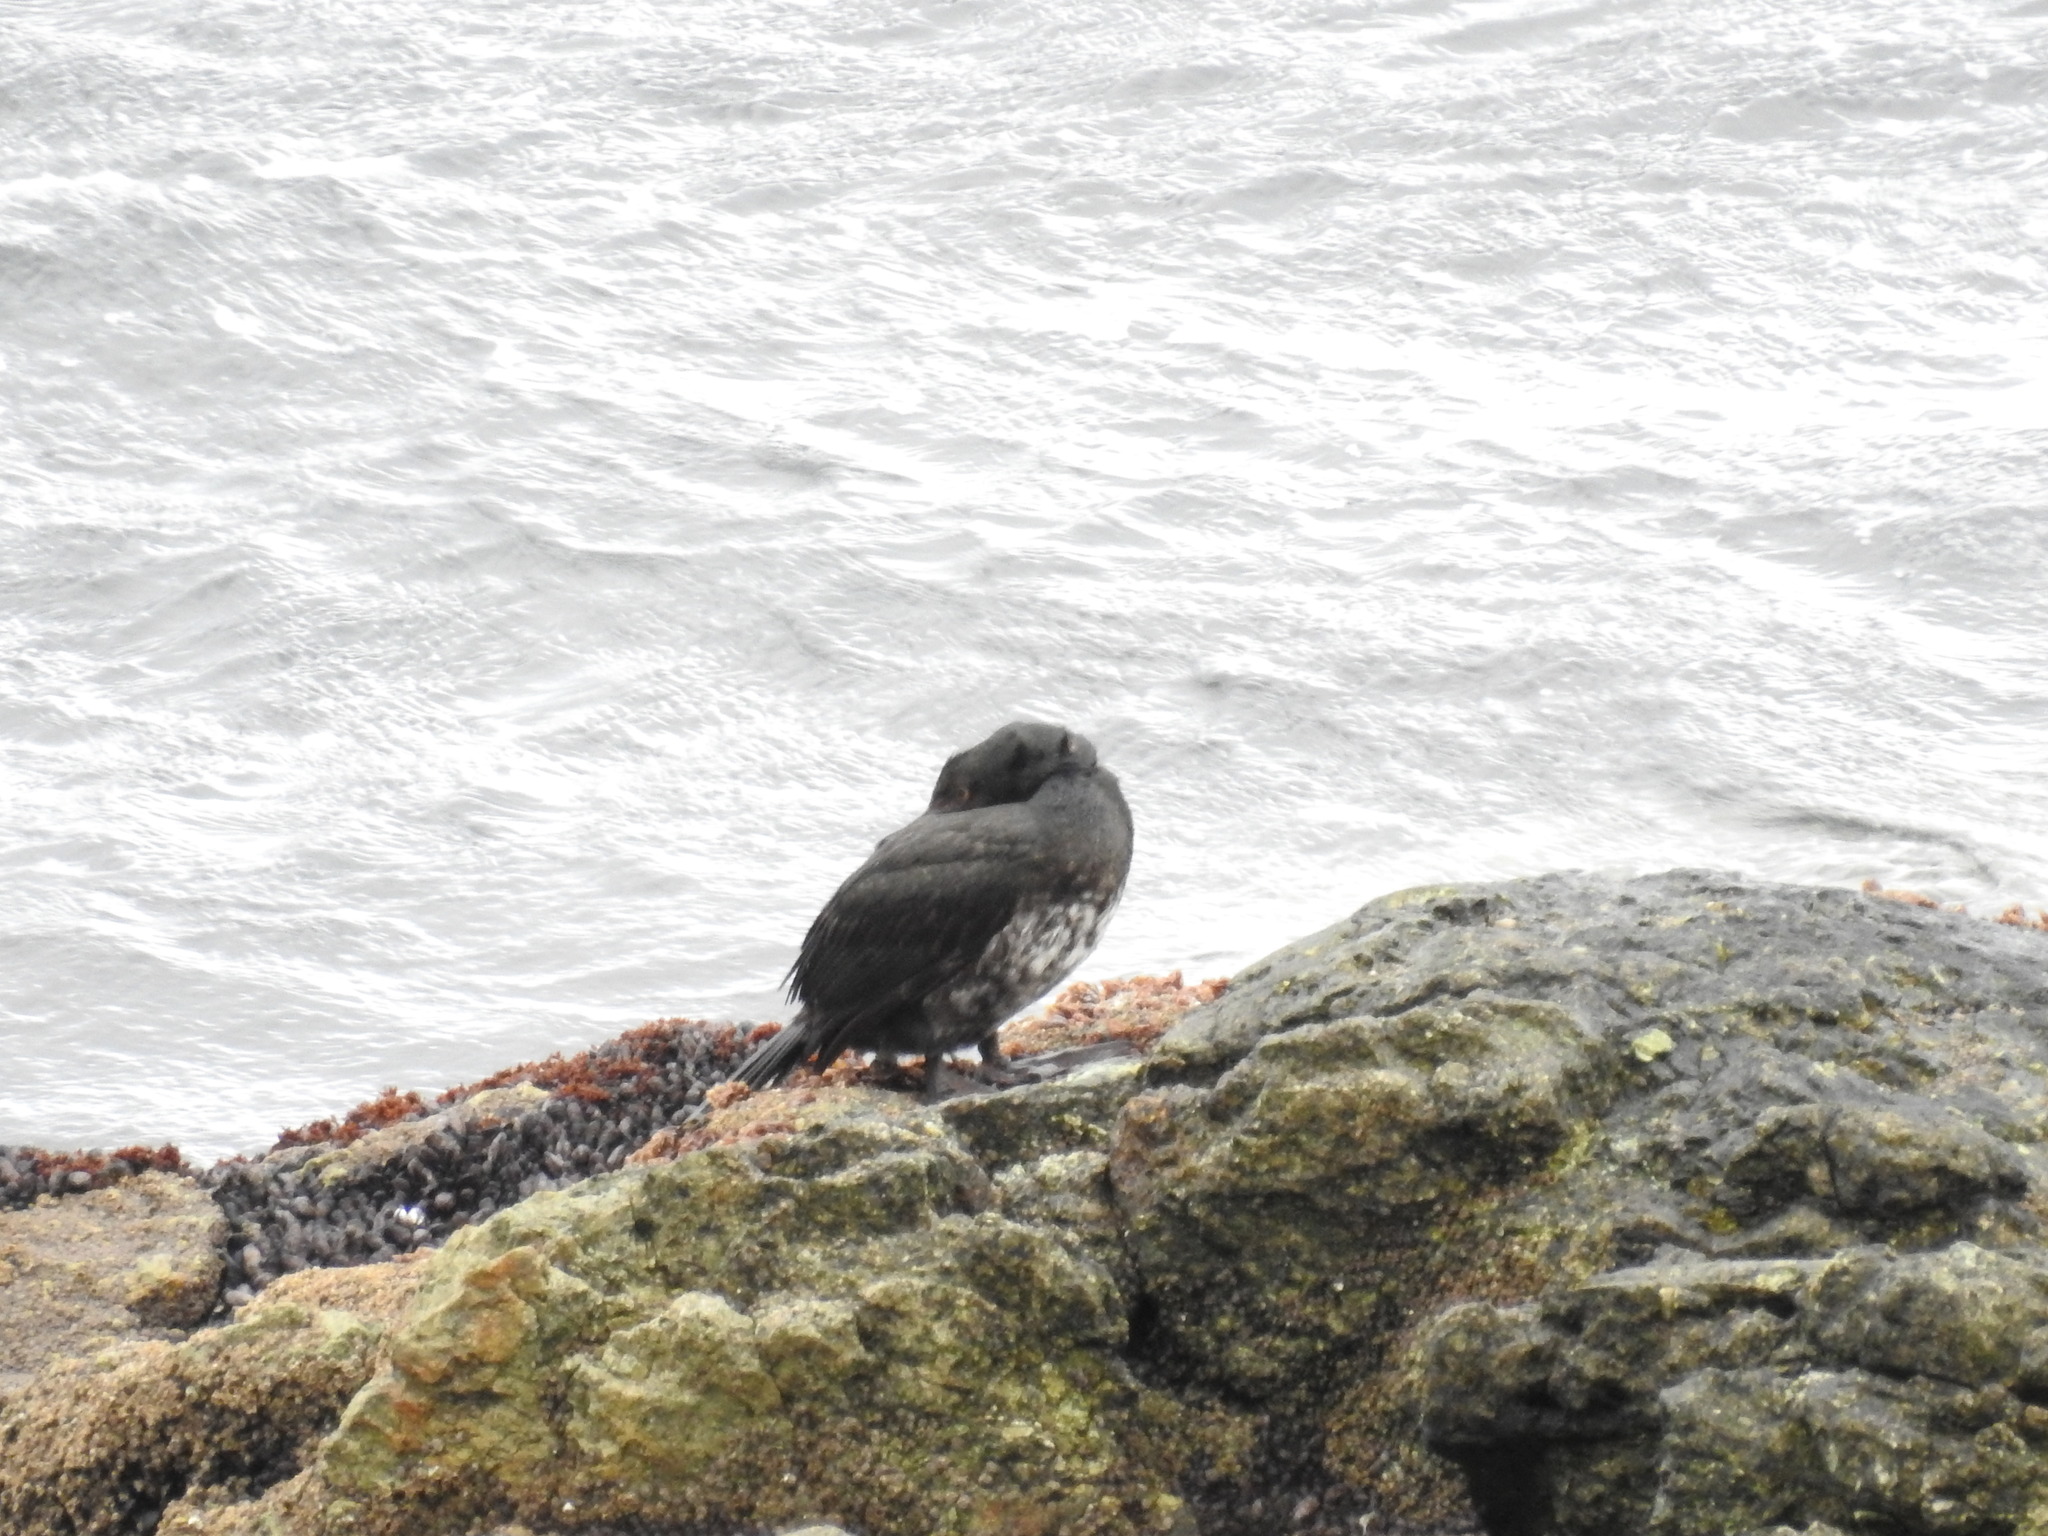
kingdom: Animalia
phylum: Chordata
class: Aves
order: Suliformes
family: Phalacrocoracidae
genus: Phalacrocorax
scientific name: Phalacrocorax magellanicus
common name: Rock shag
